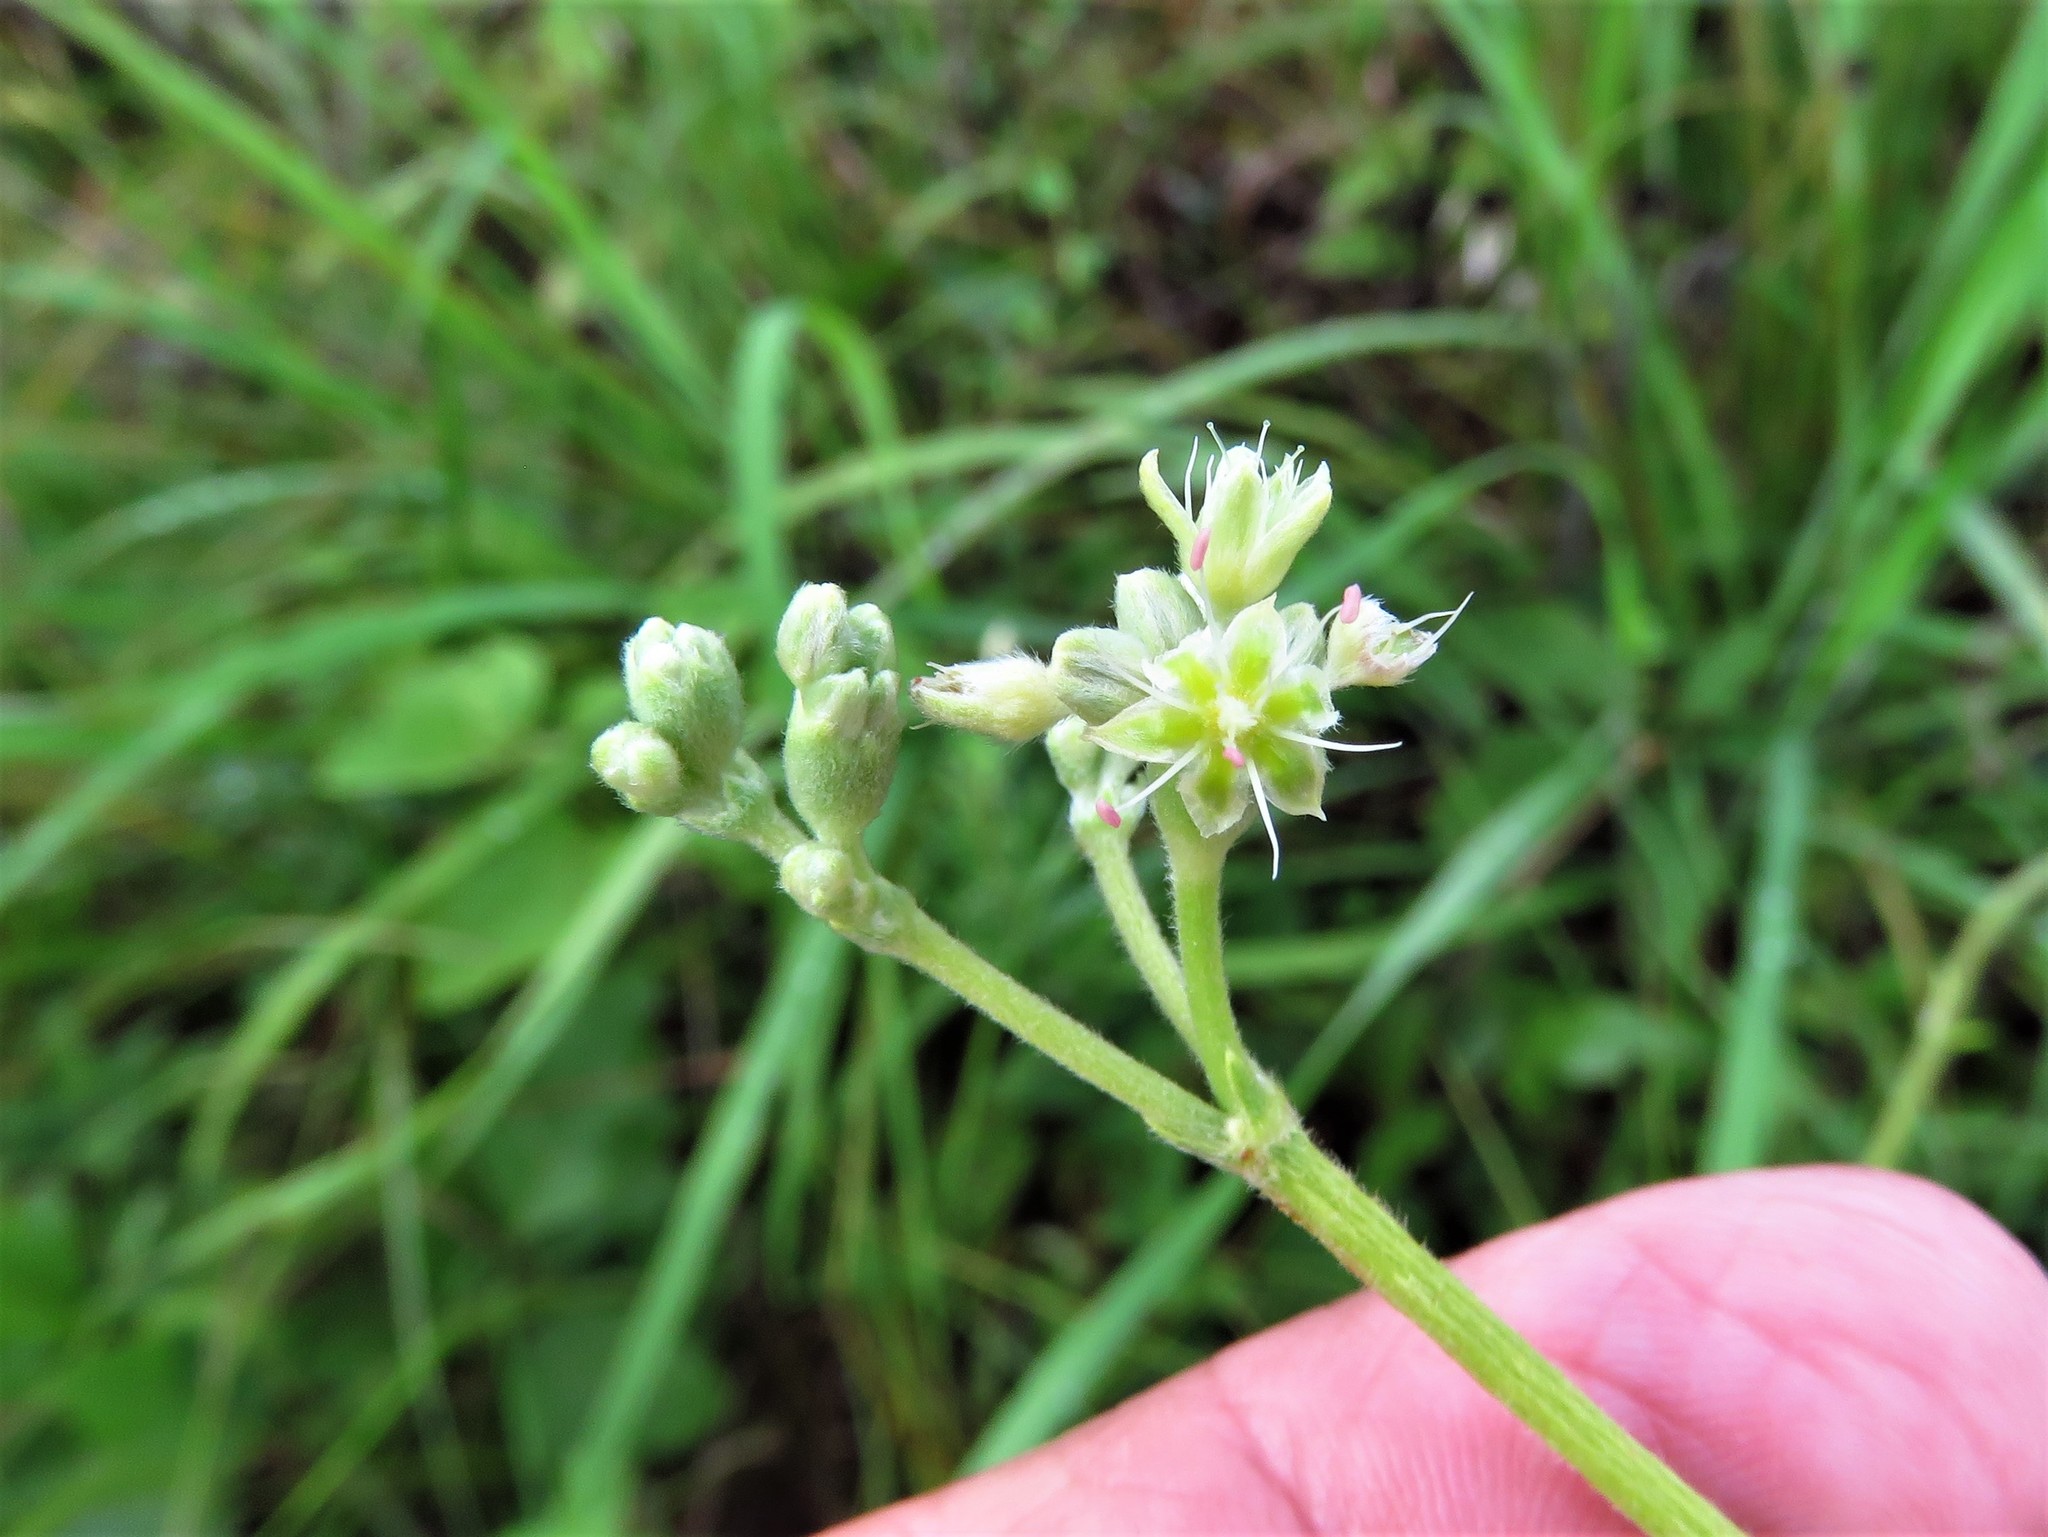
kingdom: Plantae
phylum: Tracheophyta
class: Magnoliopsida
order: Caryophyllales
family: Polygonaceae
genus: Eriogonum
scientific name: Eriogonum longifolium
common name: Longleaf wild buckwheat
